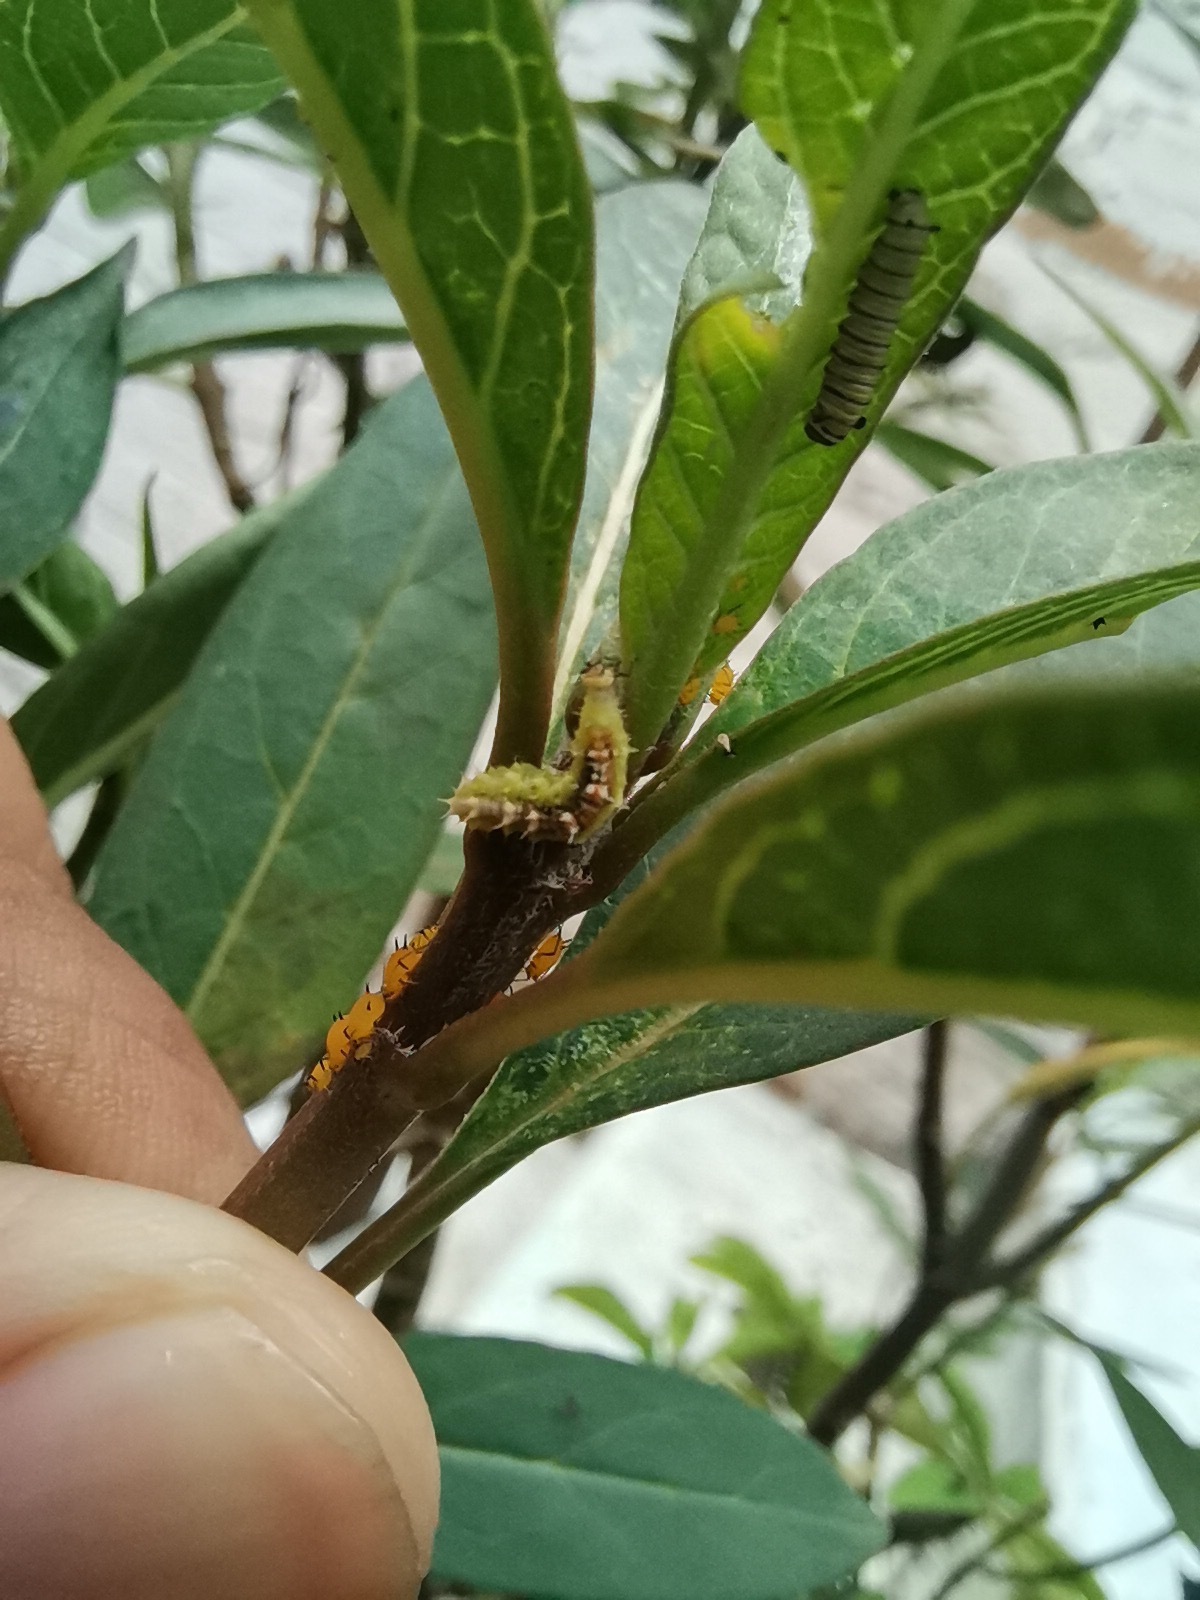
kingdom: Animalia
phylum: Arthropoda
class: Insecta
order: Lepidoptera
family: Nymphalidae
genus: Danaus
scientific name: Danaus plexippus
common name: Monarch
